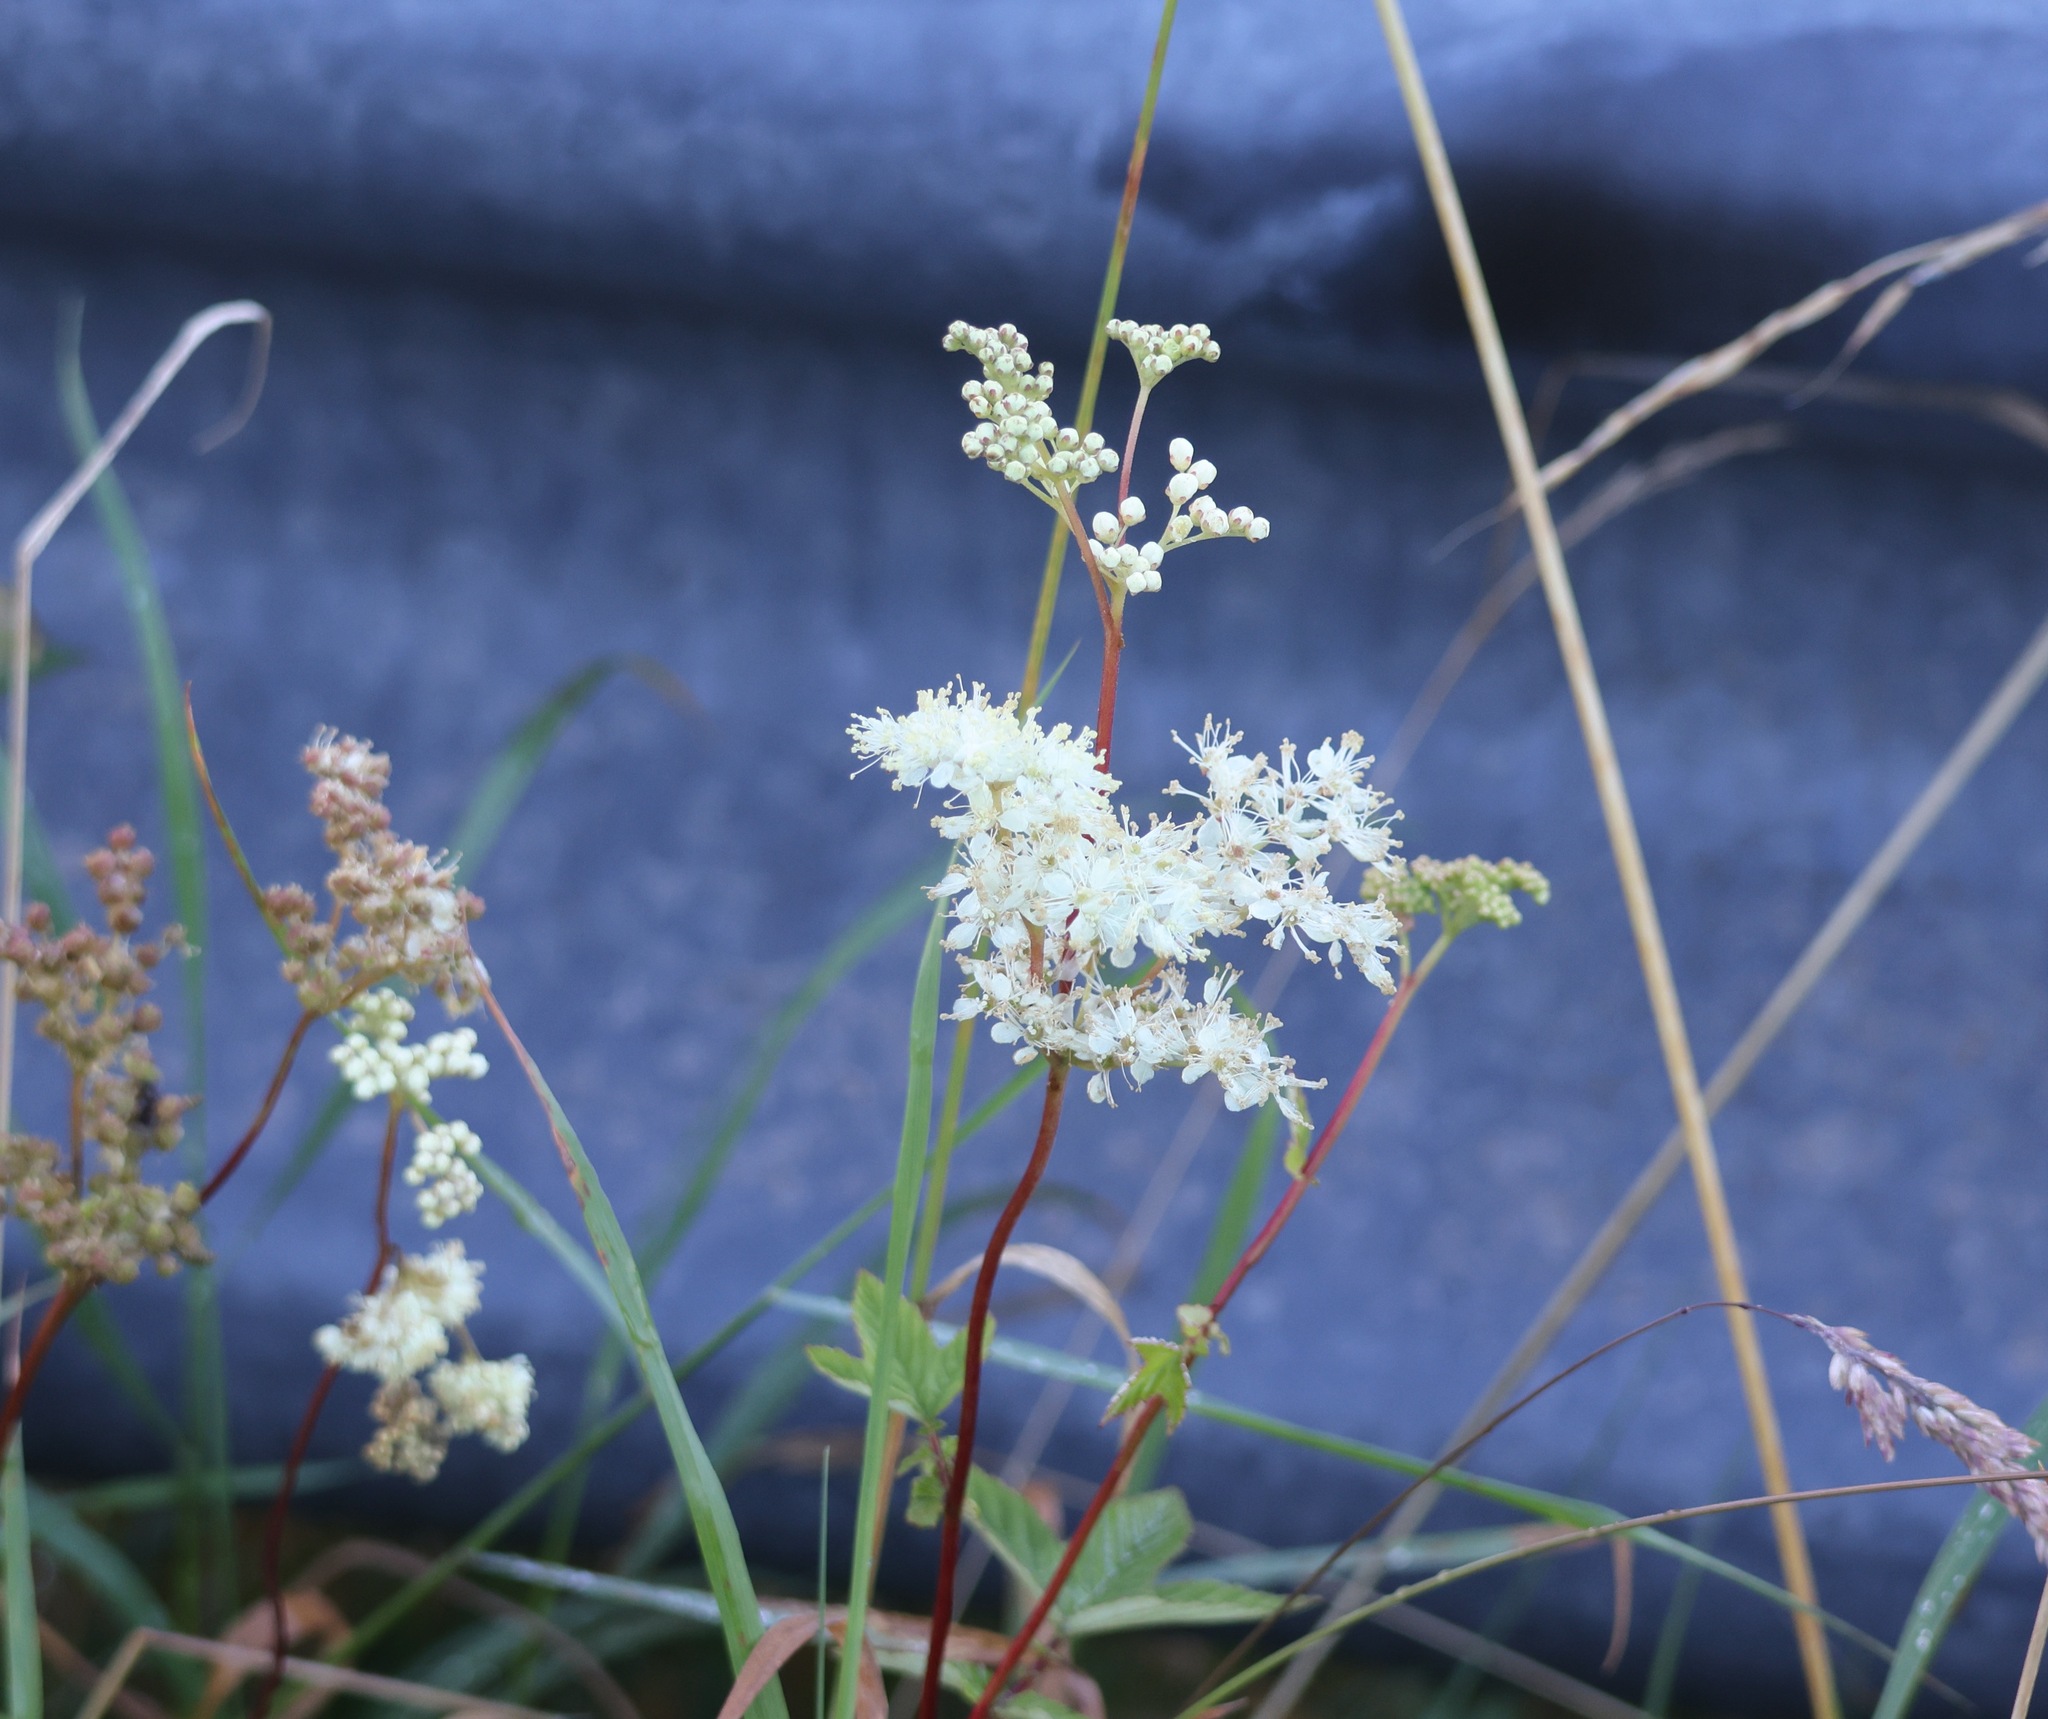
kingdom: Plantae
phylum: Tracheophyta
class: Magnoliopsida
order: Rosales
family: Rosaceae
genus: Filipendula
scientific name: Filipendula ulmaria
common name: Meadowsweet
